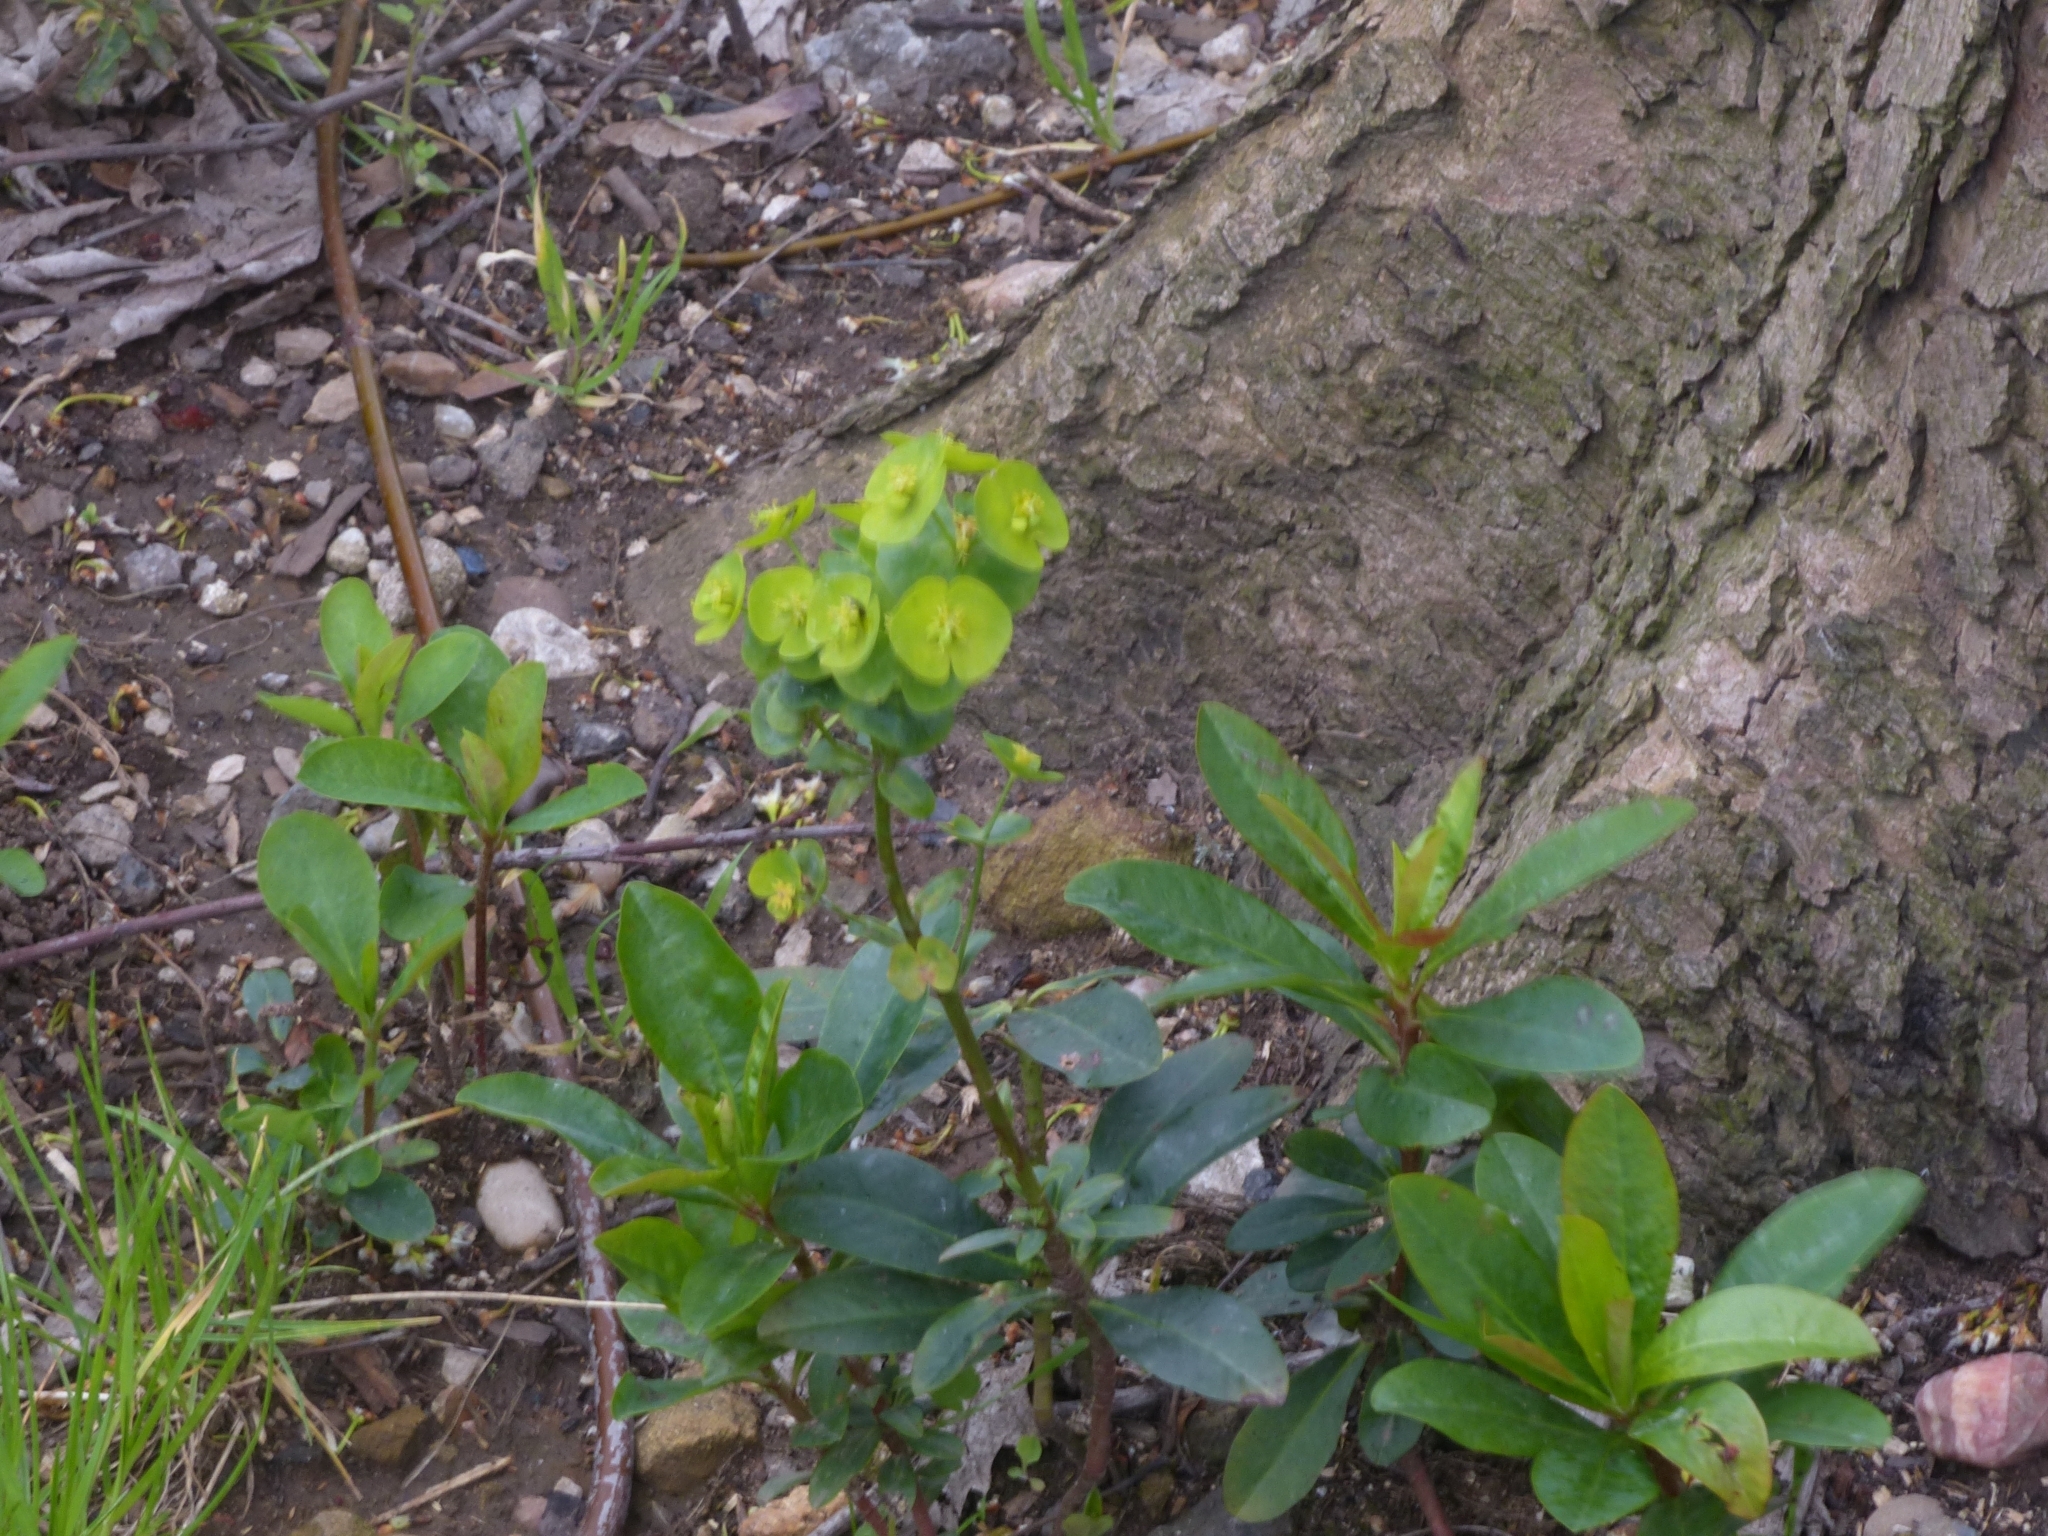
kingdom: Plantae
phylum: Tracheophyta
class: Magnoliopsida
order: Malpighiales
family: Euphorbiaceae
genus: Euphorbia
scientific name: Euphorbia amygdaloides
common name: Wood spurge
